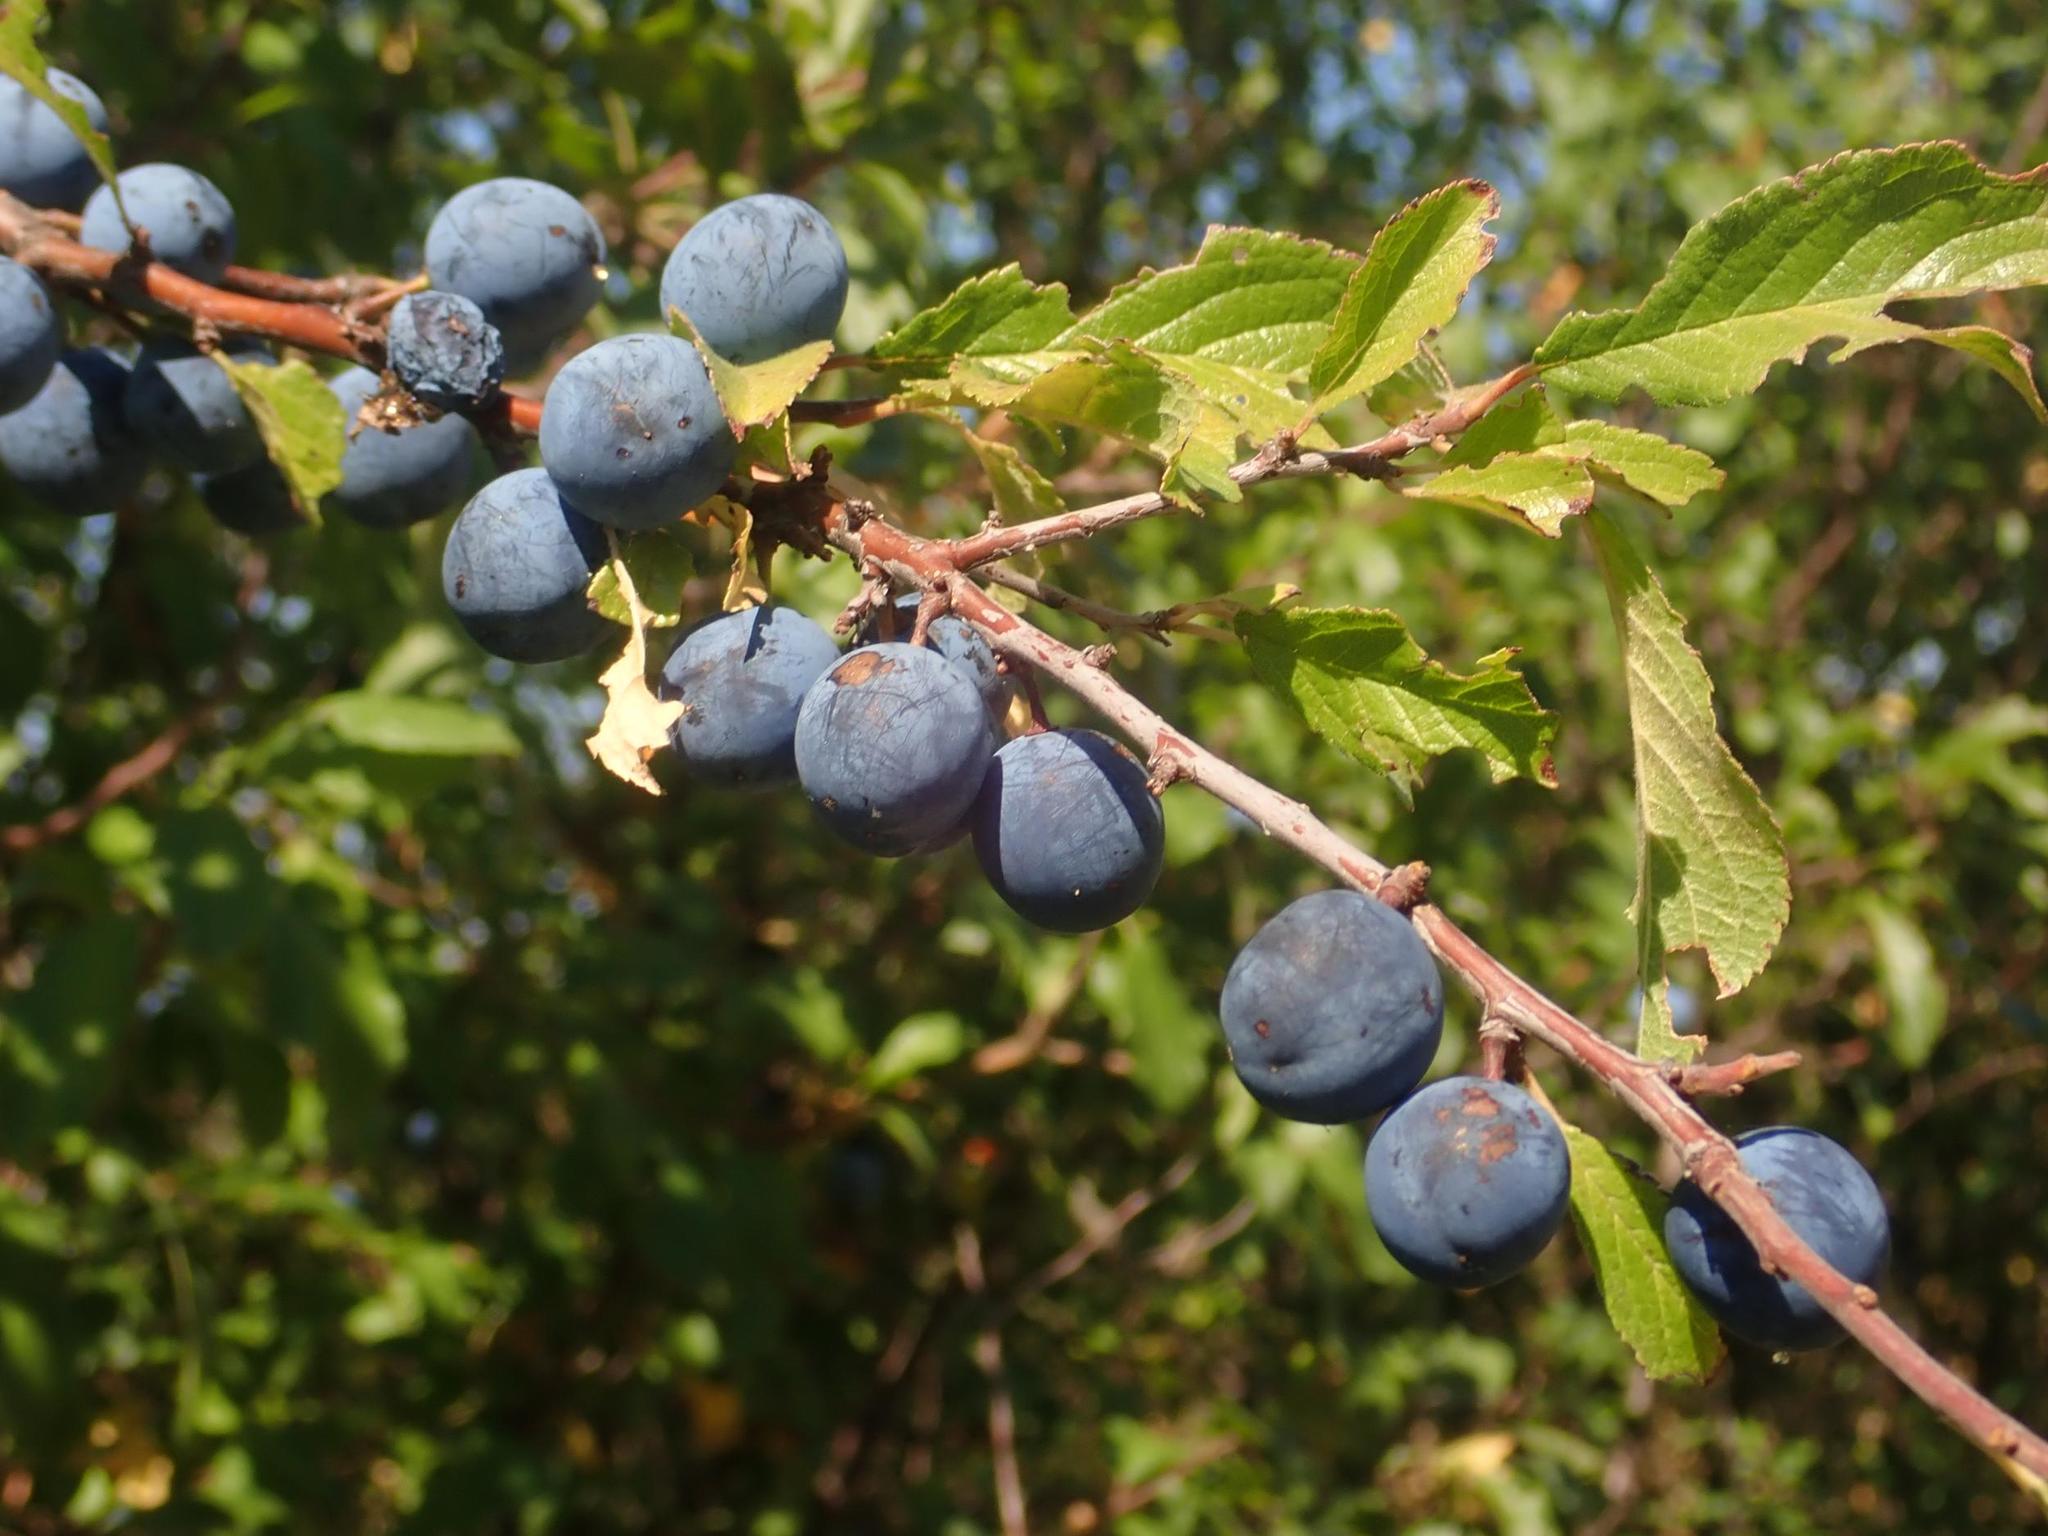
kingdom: Plantae
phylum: Tracheophyta
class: Magnoliopsida
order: Rosales
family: Rosaceae
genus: Prunus
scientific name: Prunus spinosa
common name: Blackthorn
